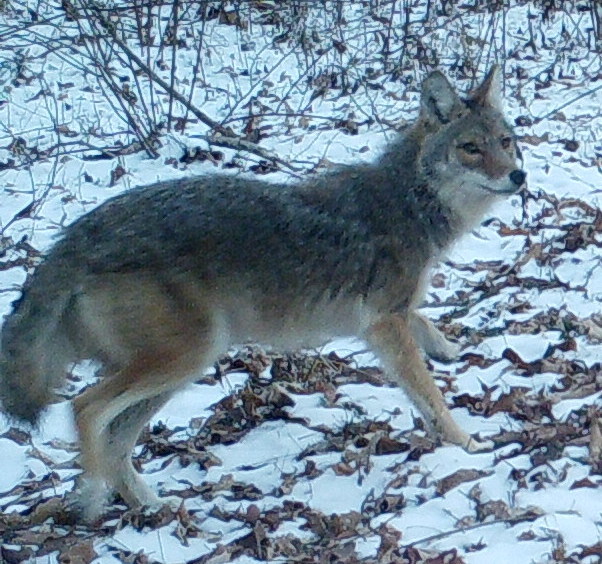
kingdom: Animalia
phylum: Chordata
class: Mammalia
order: Carnivora
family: Canidae
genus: Canis
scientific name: Canis latrans
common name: Coyote
